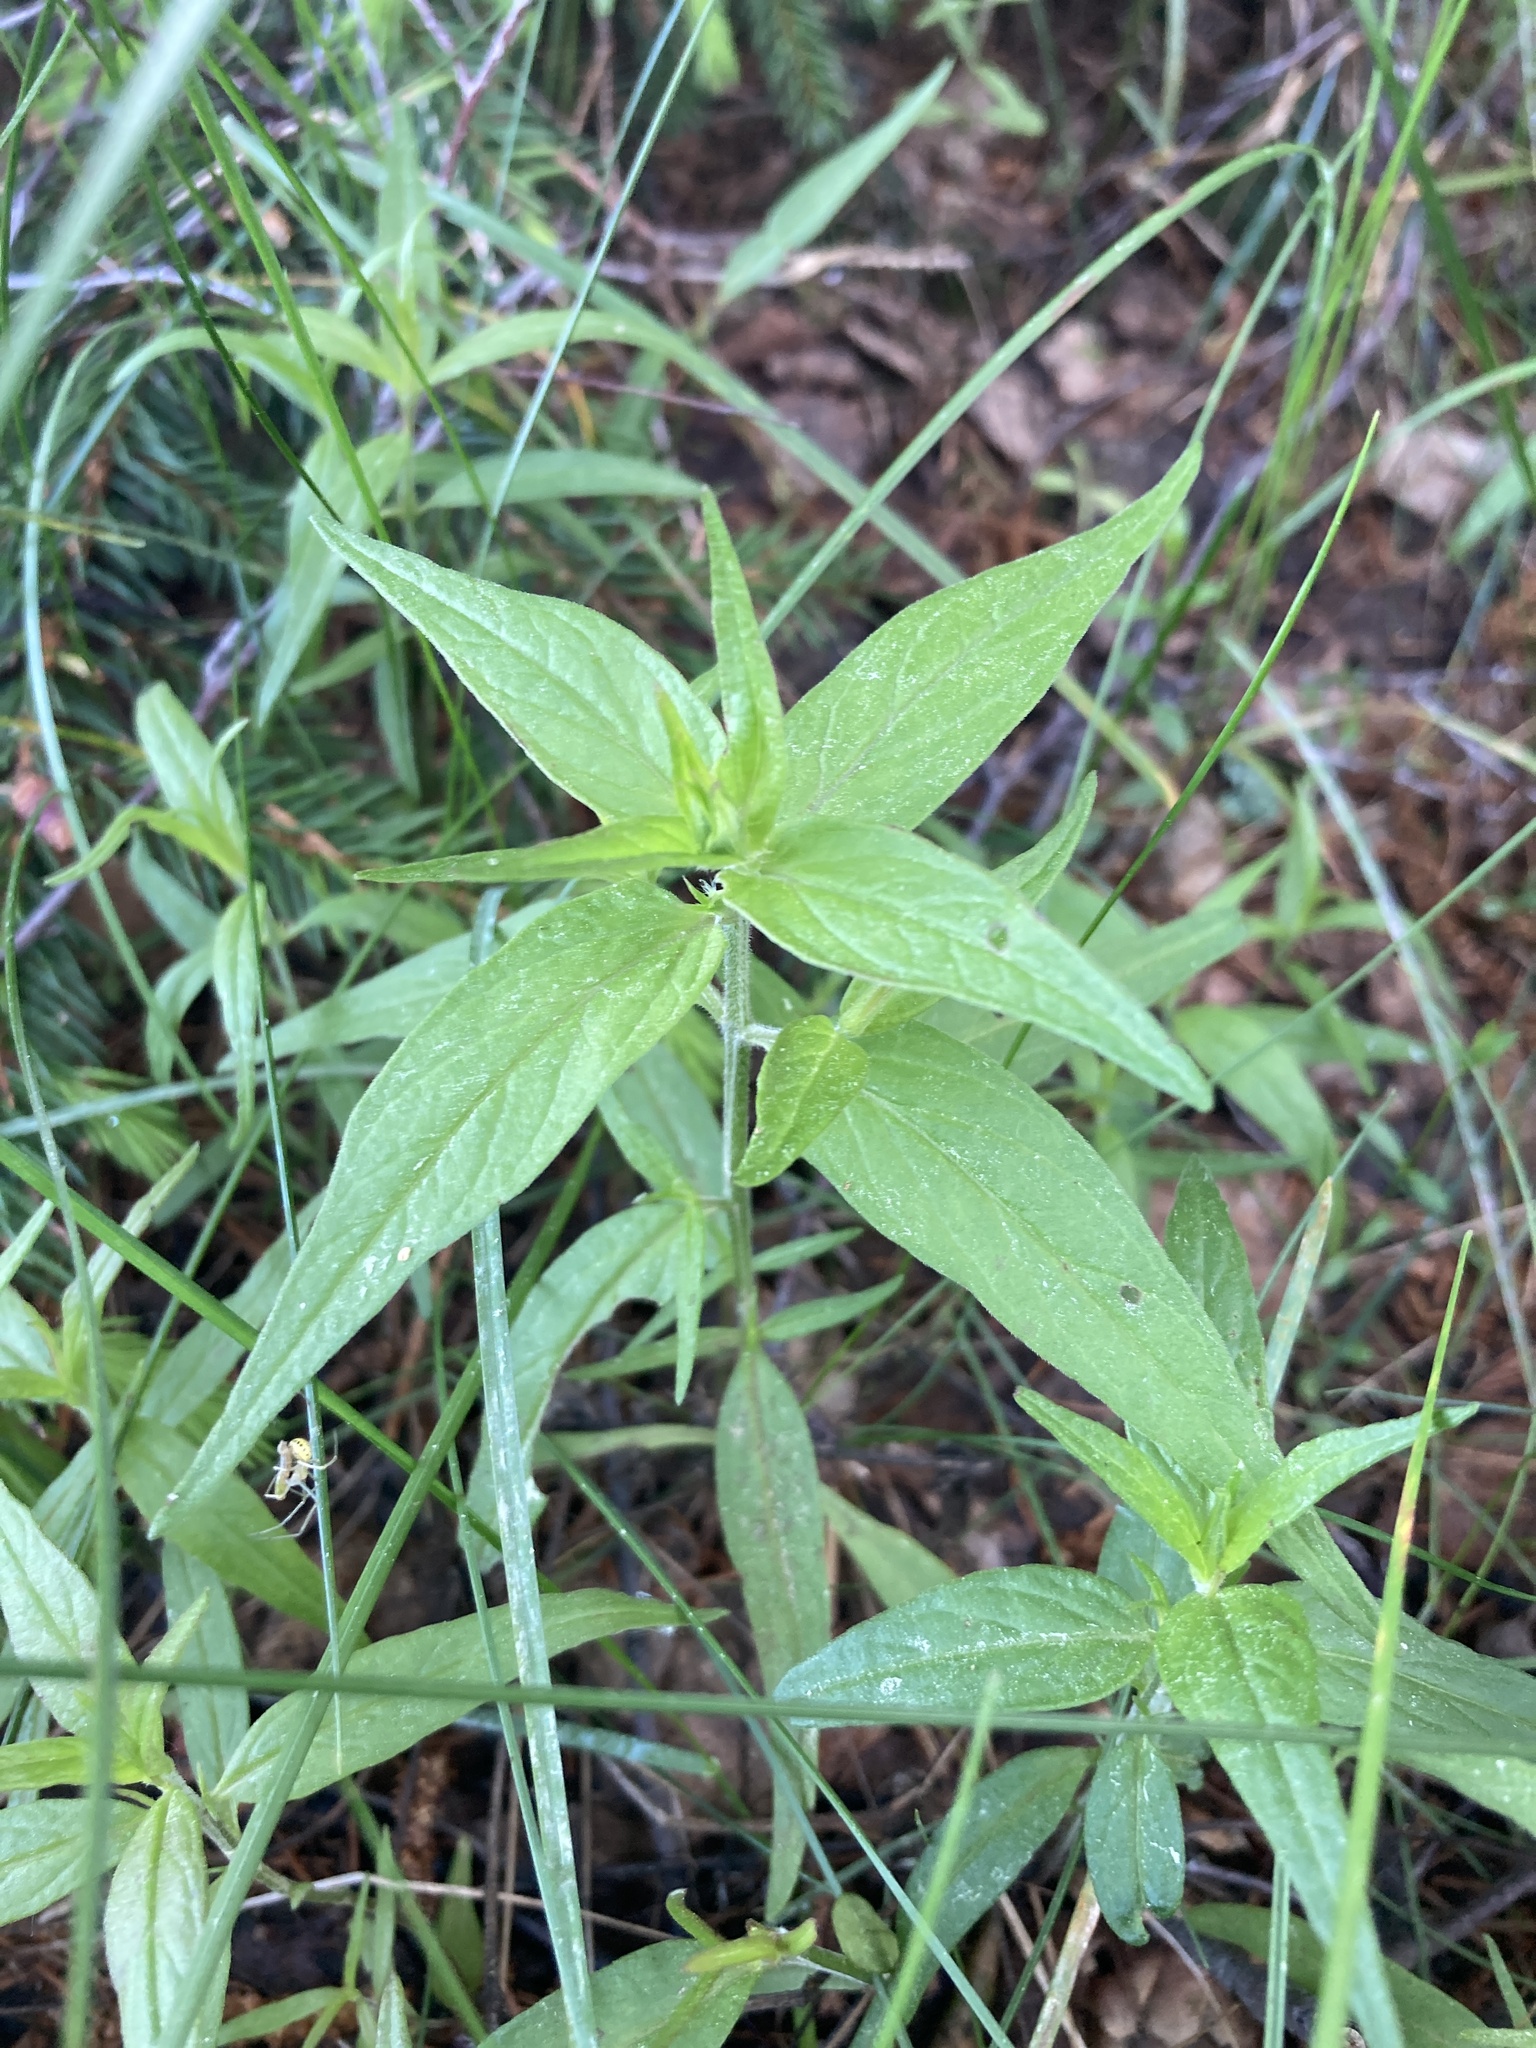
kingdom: Plantae
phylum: Tracheophyta
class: Magnoliopsida
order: Lamiales
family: Orobanchaceae
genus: Melampyrum
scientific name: Melampyrum nemorosum
